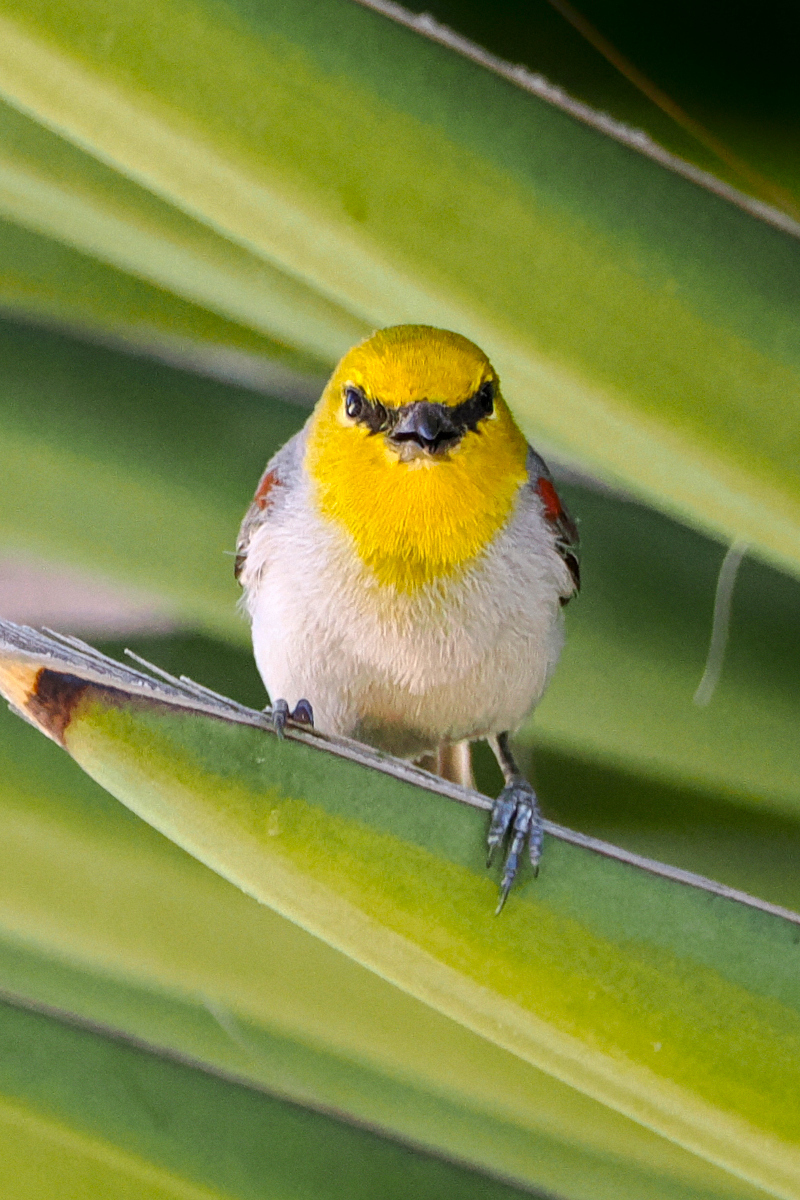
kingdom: Animalia
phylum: Chordata
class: Aves
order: Passeriformes
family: Remizidae
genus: Auriparus
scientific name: Auriparus flaviceps
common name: Verdin
